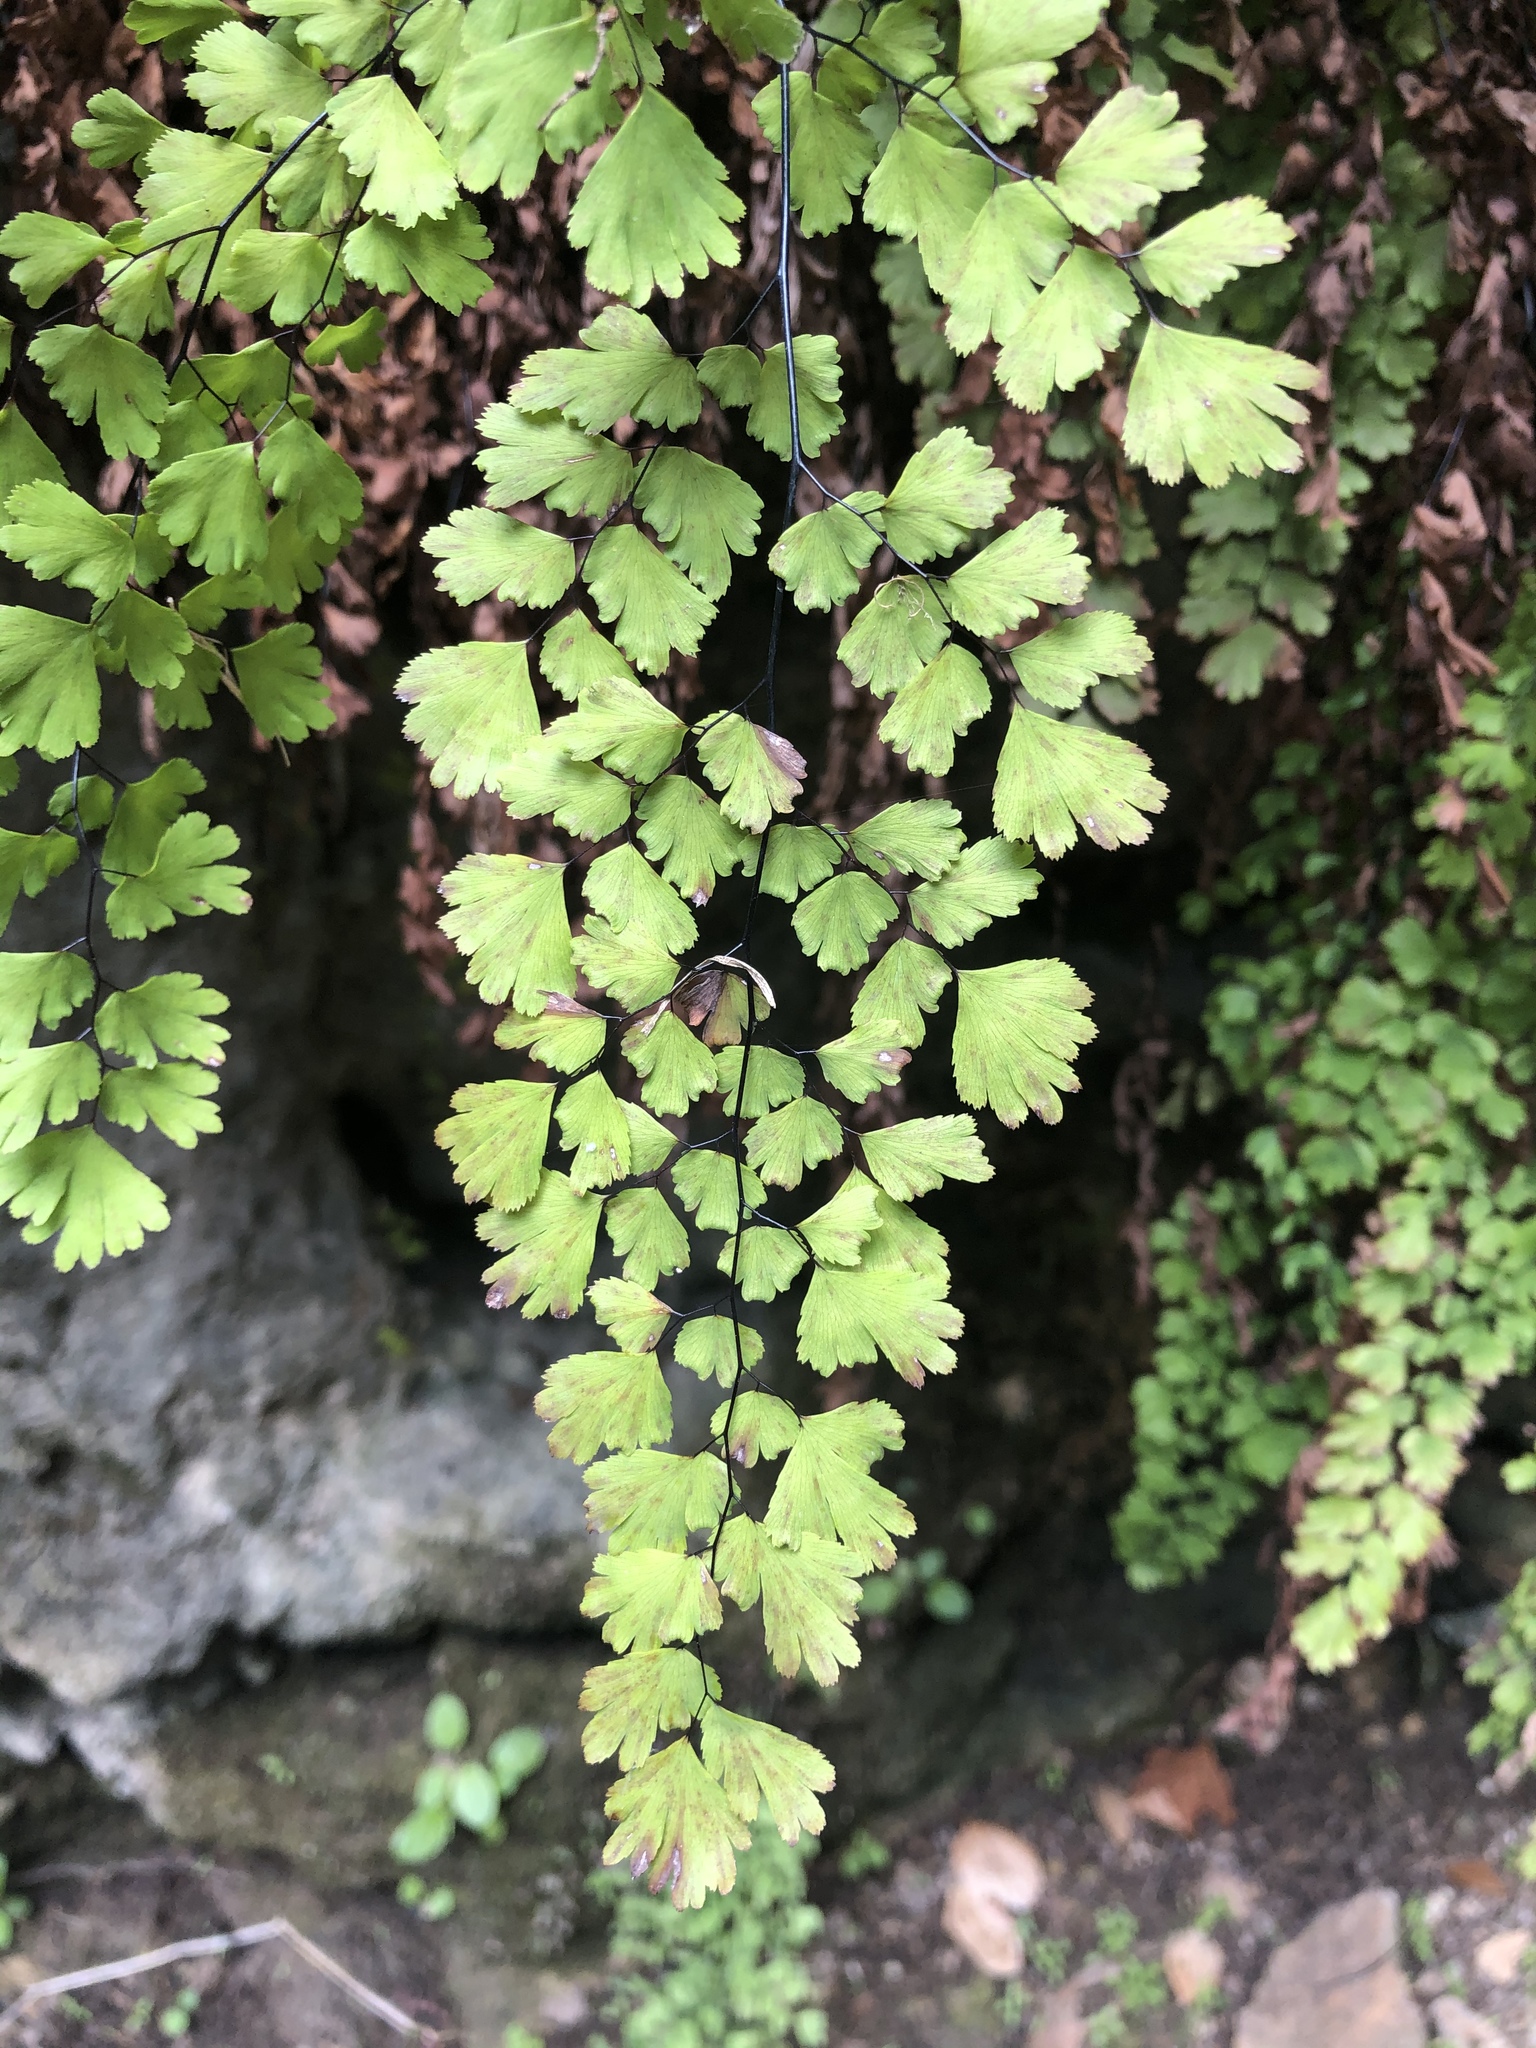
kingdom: Plantae
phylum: Tracheophyta
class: Polypodiopsida
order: Polypodiales
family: Pteridaceae
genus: Adiantum
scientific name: Adiantum capillus-veneris
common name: Maidenhair fern
